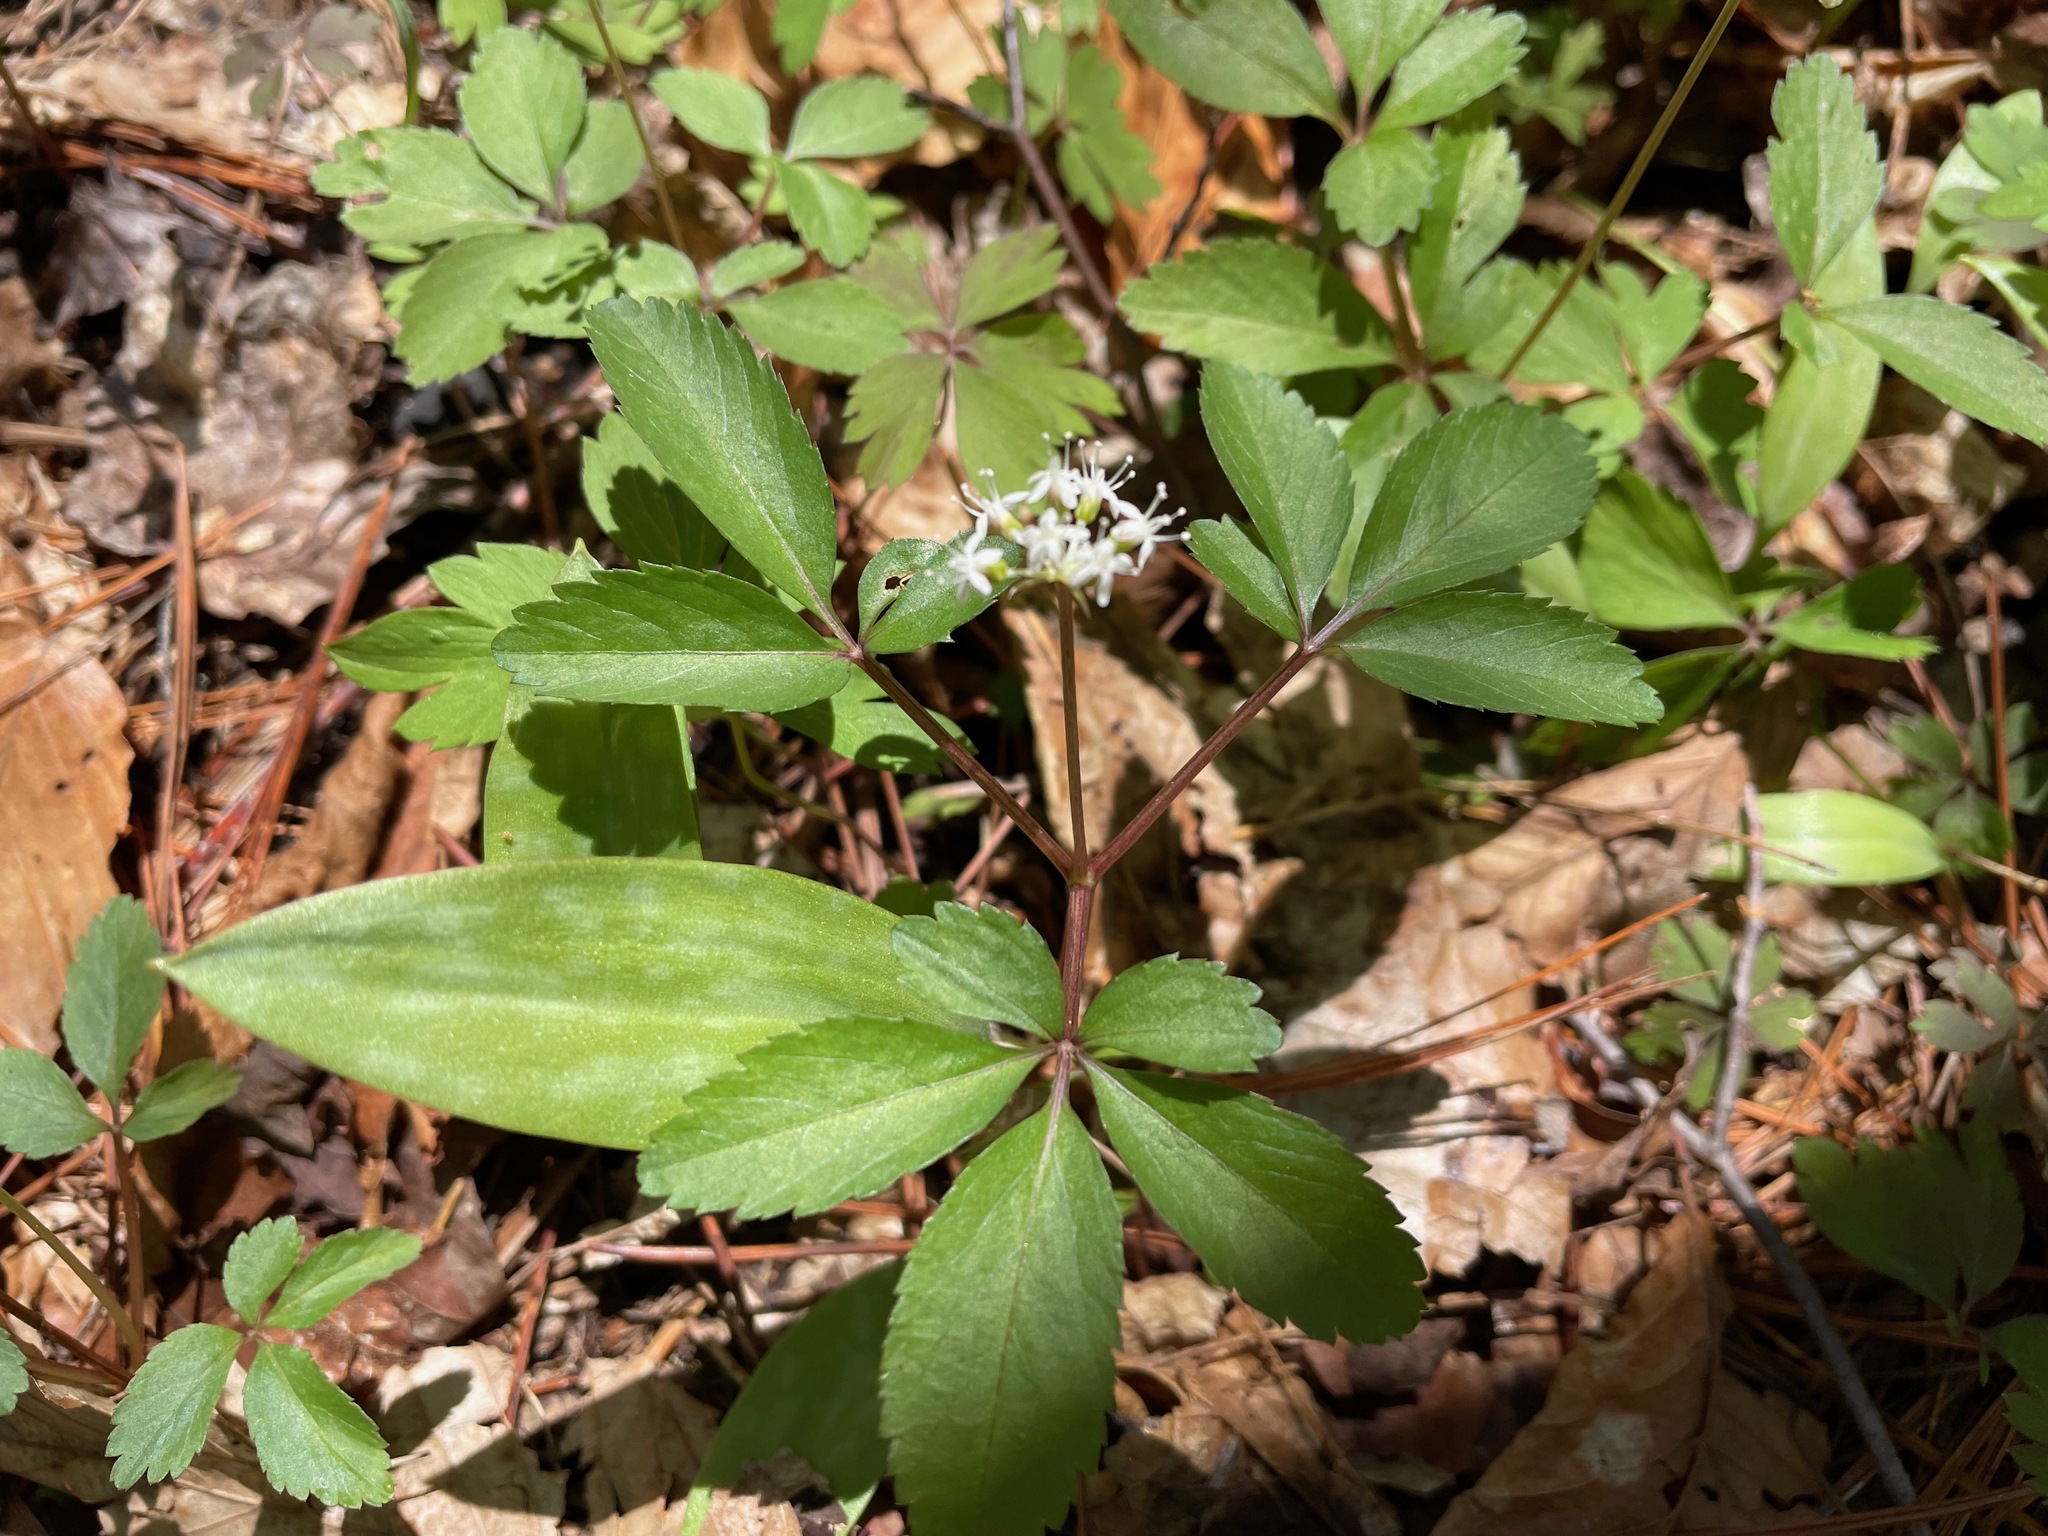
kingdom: Plantae
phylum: Tracheophyta
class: Magnoliopsida
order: Apiales
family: Araliaceae
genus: Panax
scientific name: Panax trifolius
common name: Dwarf ginseng
